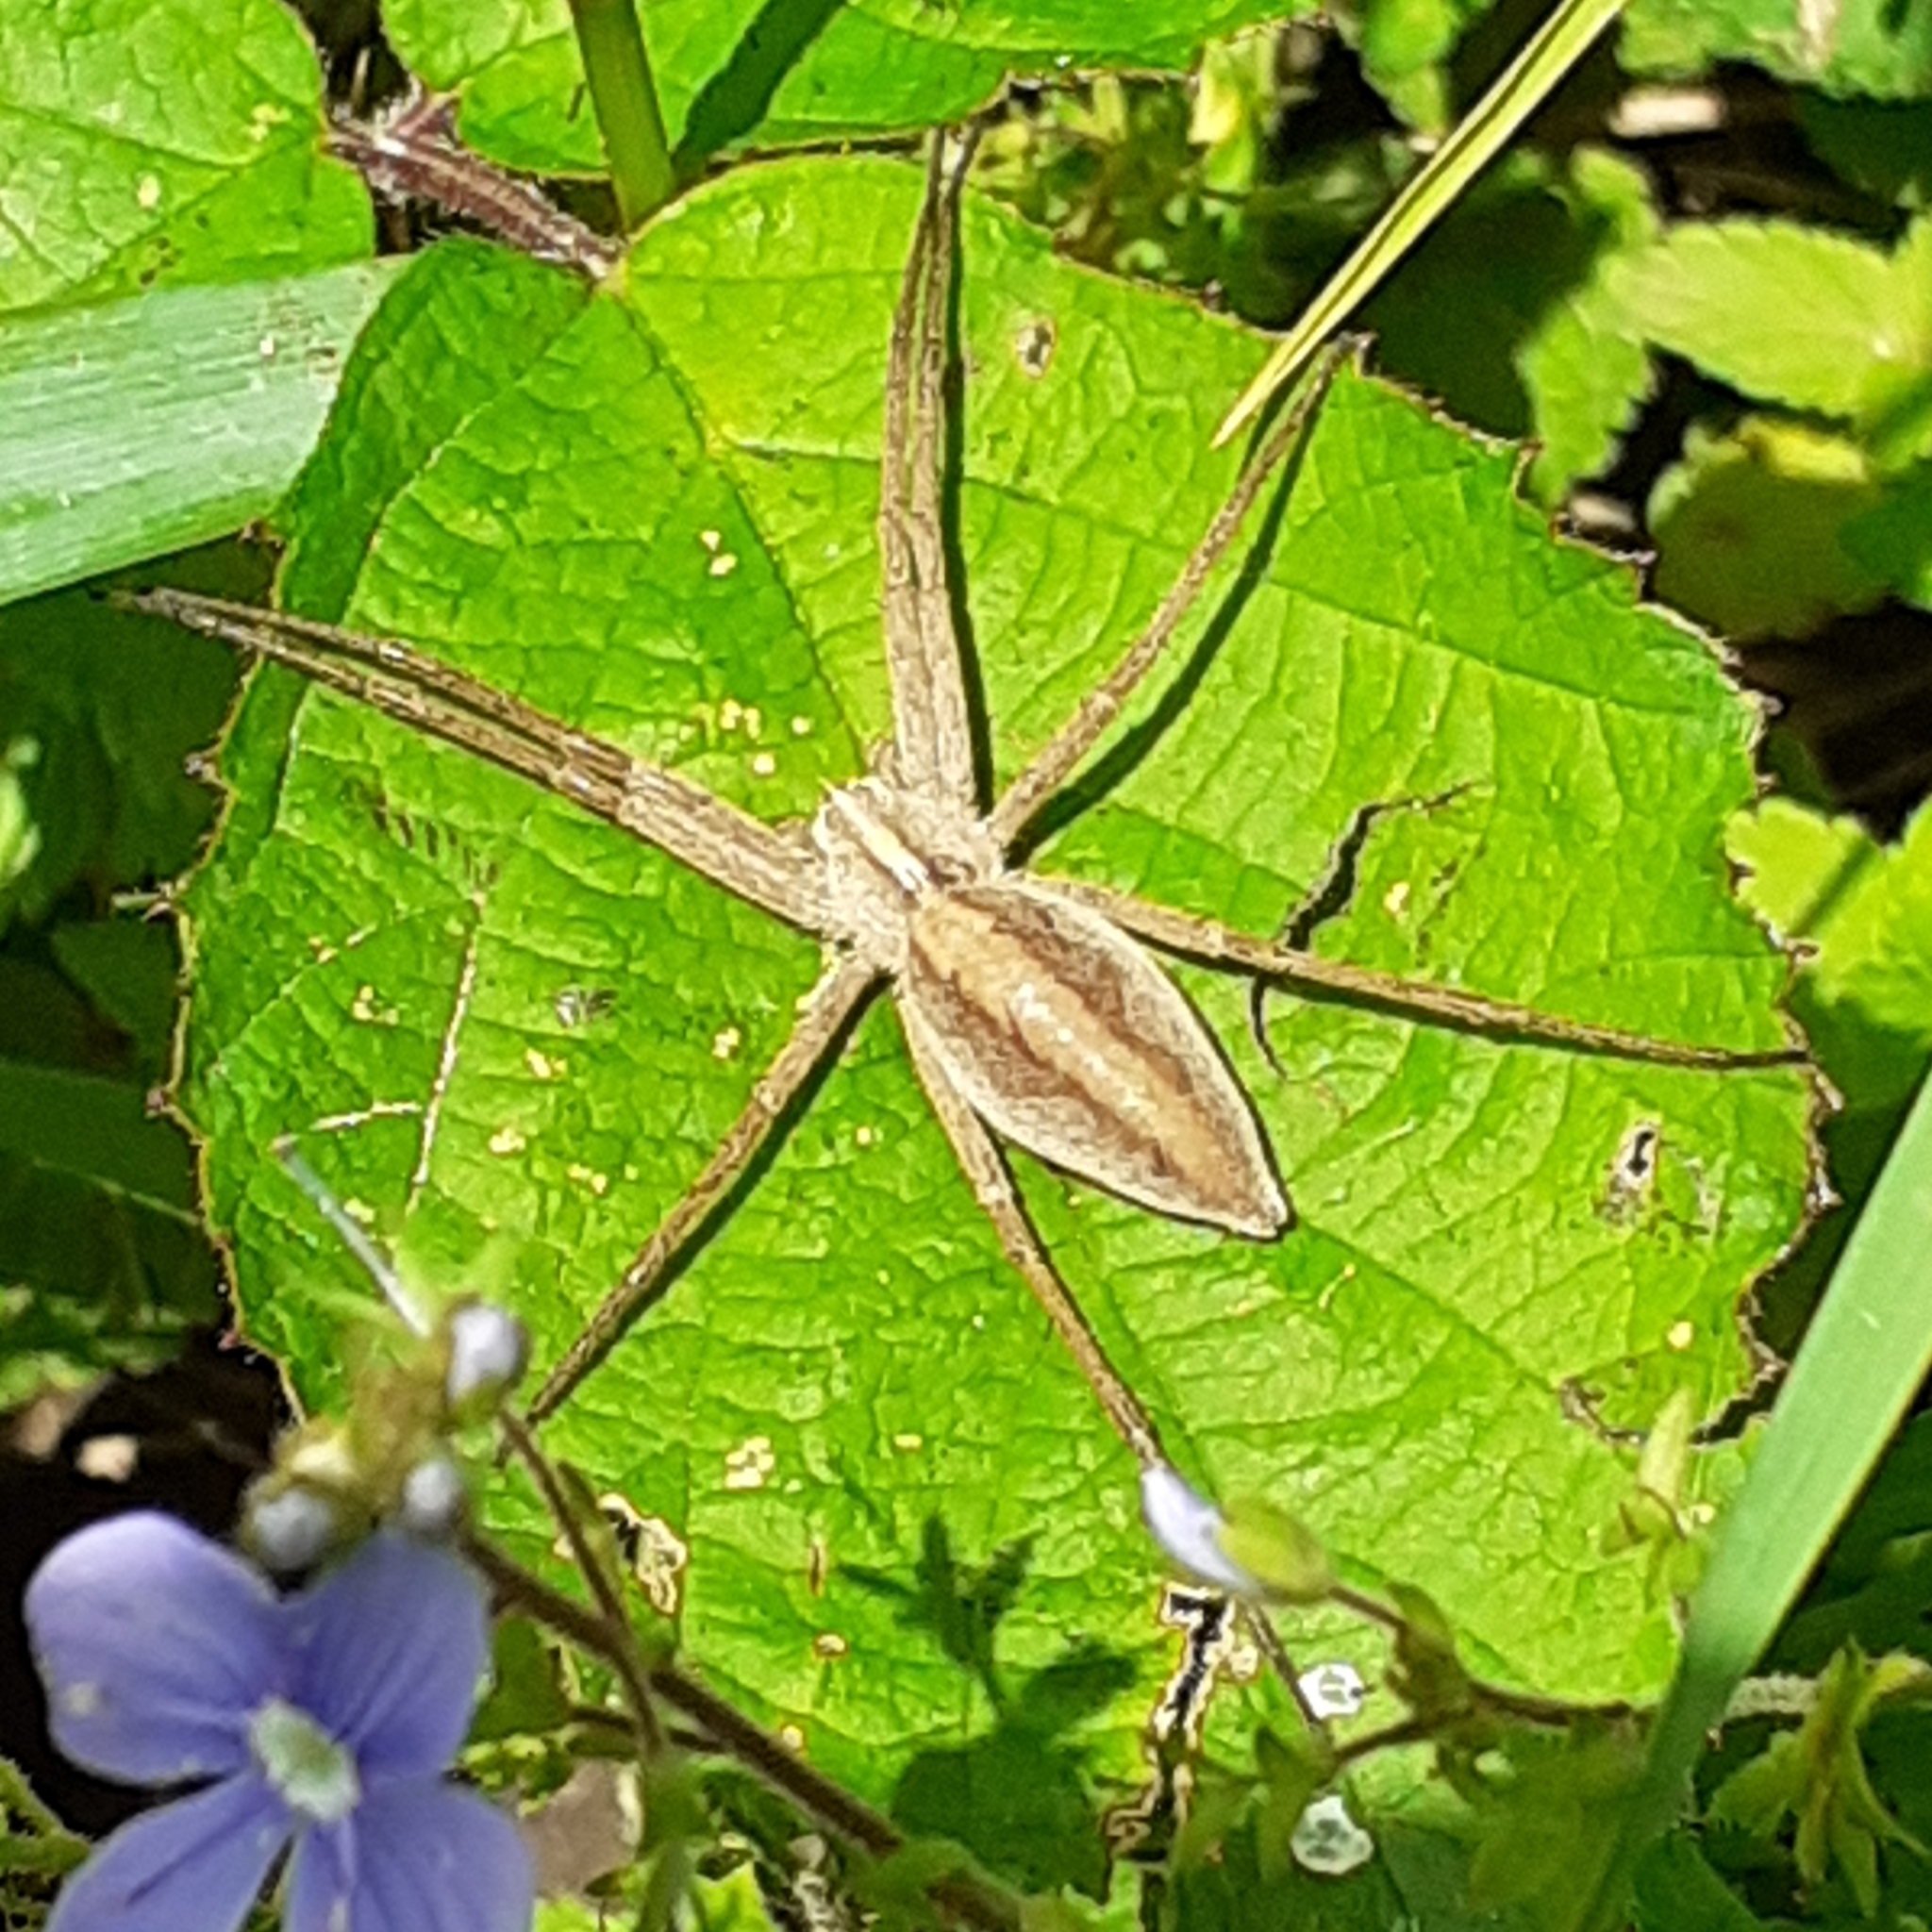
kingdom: Animalia
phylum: Arthropoda
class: Arachnida
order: Araneae
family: Pisauridae
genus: Pisaura
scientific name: Pisaura mirabilis
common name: Tent spider
